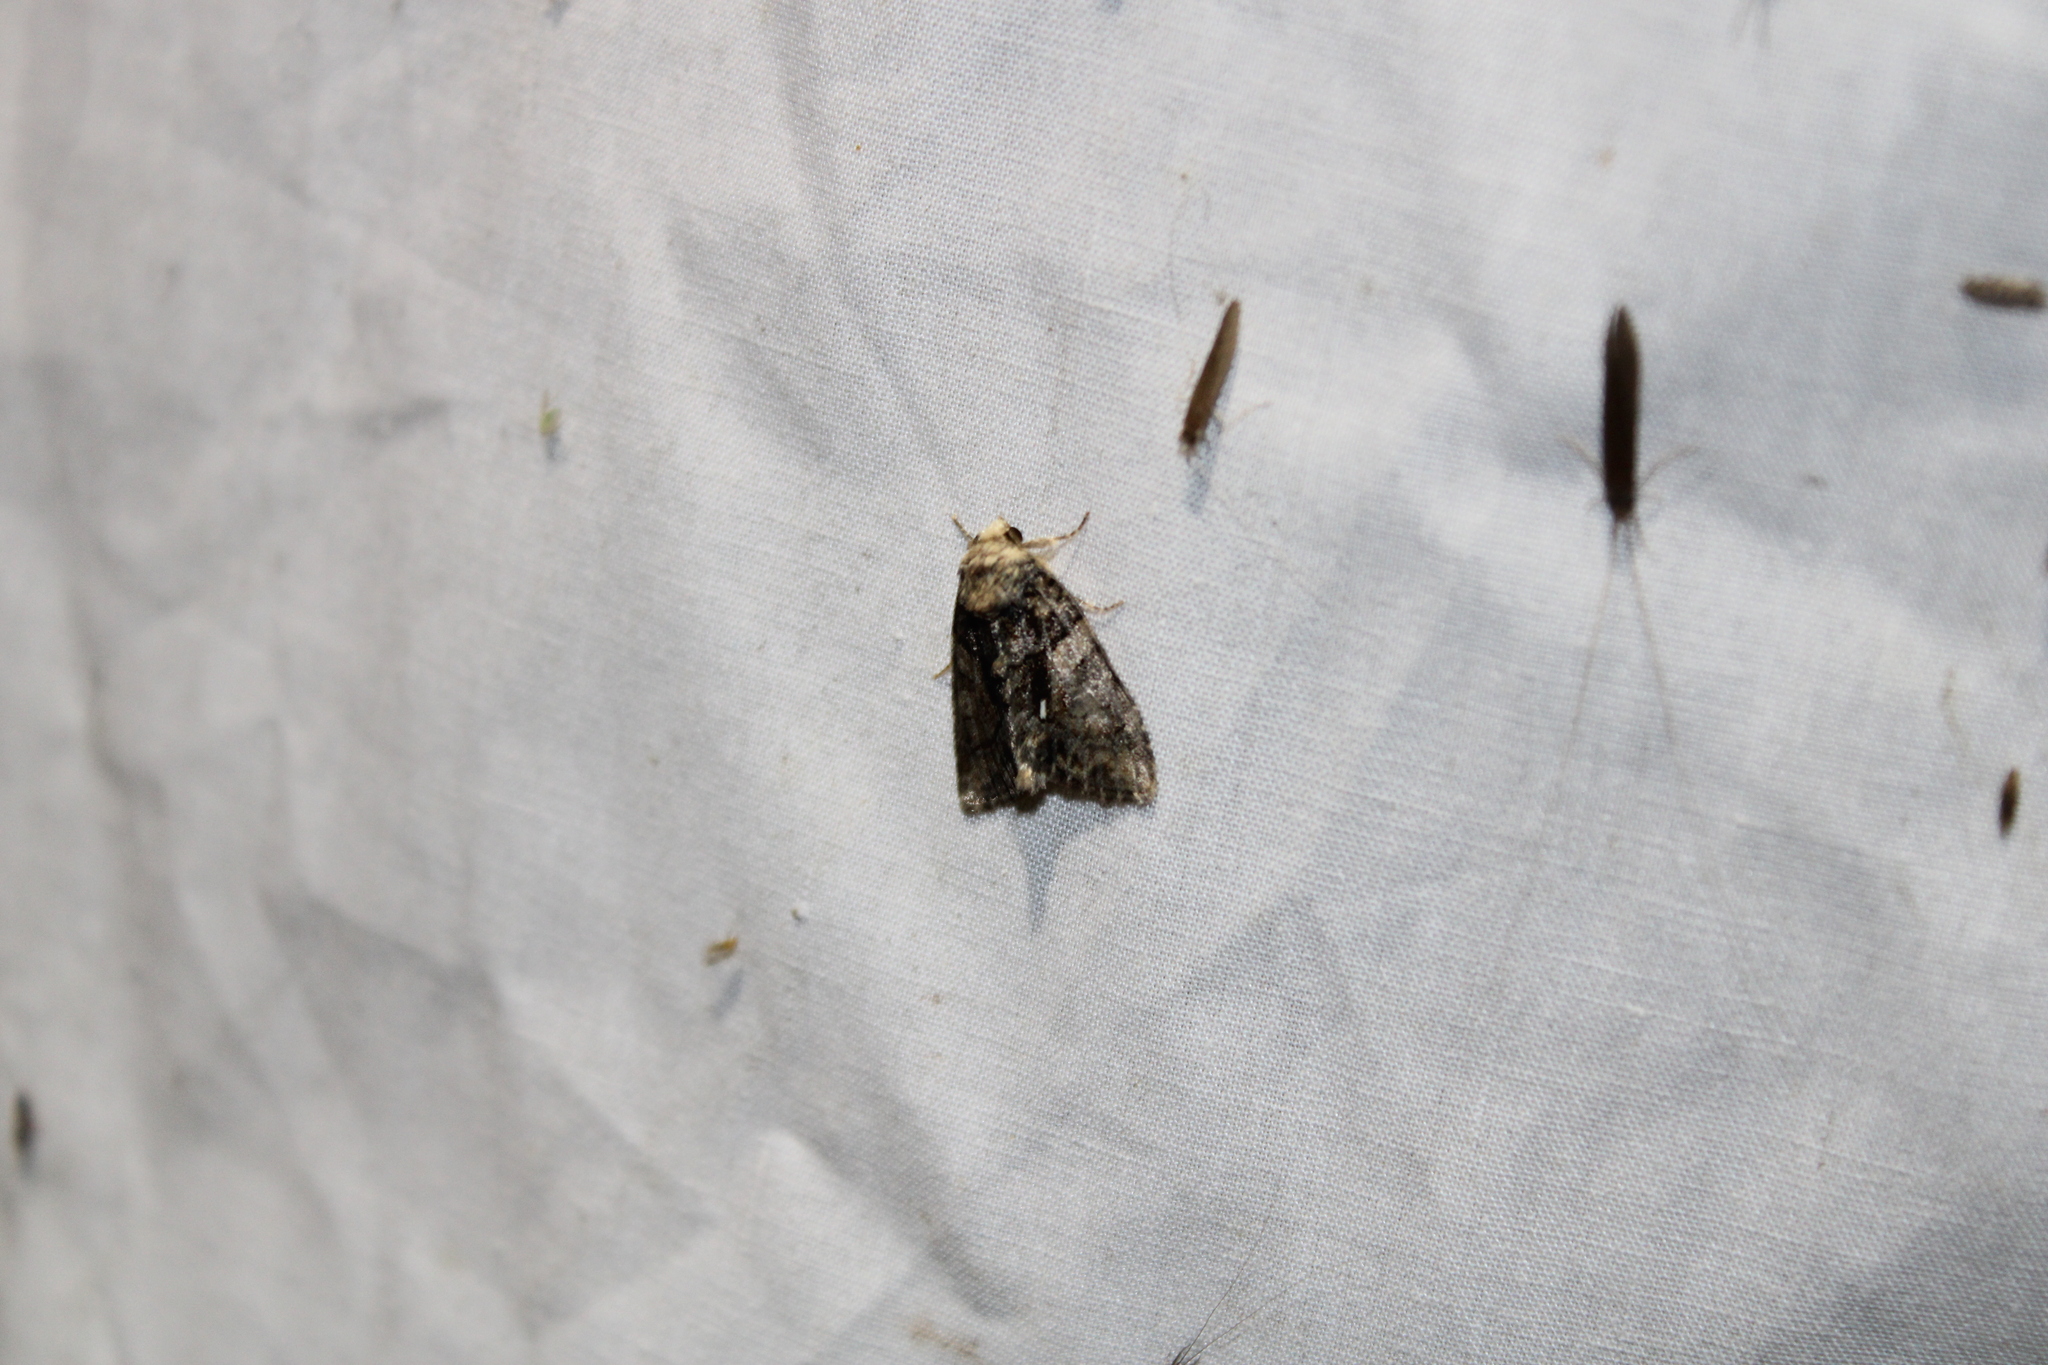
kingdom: Animalia
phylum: Arthropoda
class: Insecta
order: Lepidoptera
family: Noctuidae
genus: Chytonix
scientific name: Chytonix palliatricula
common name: Cloaked marvel
